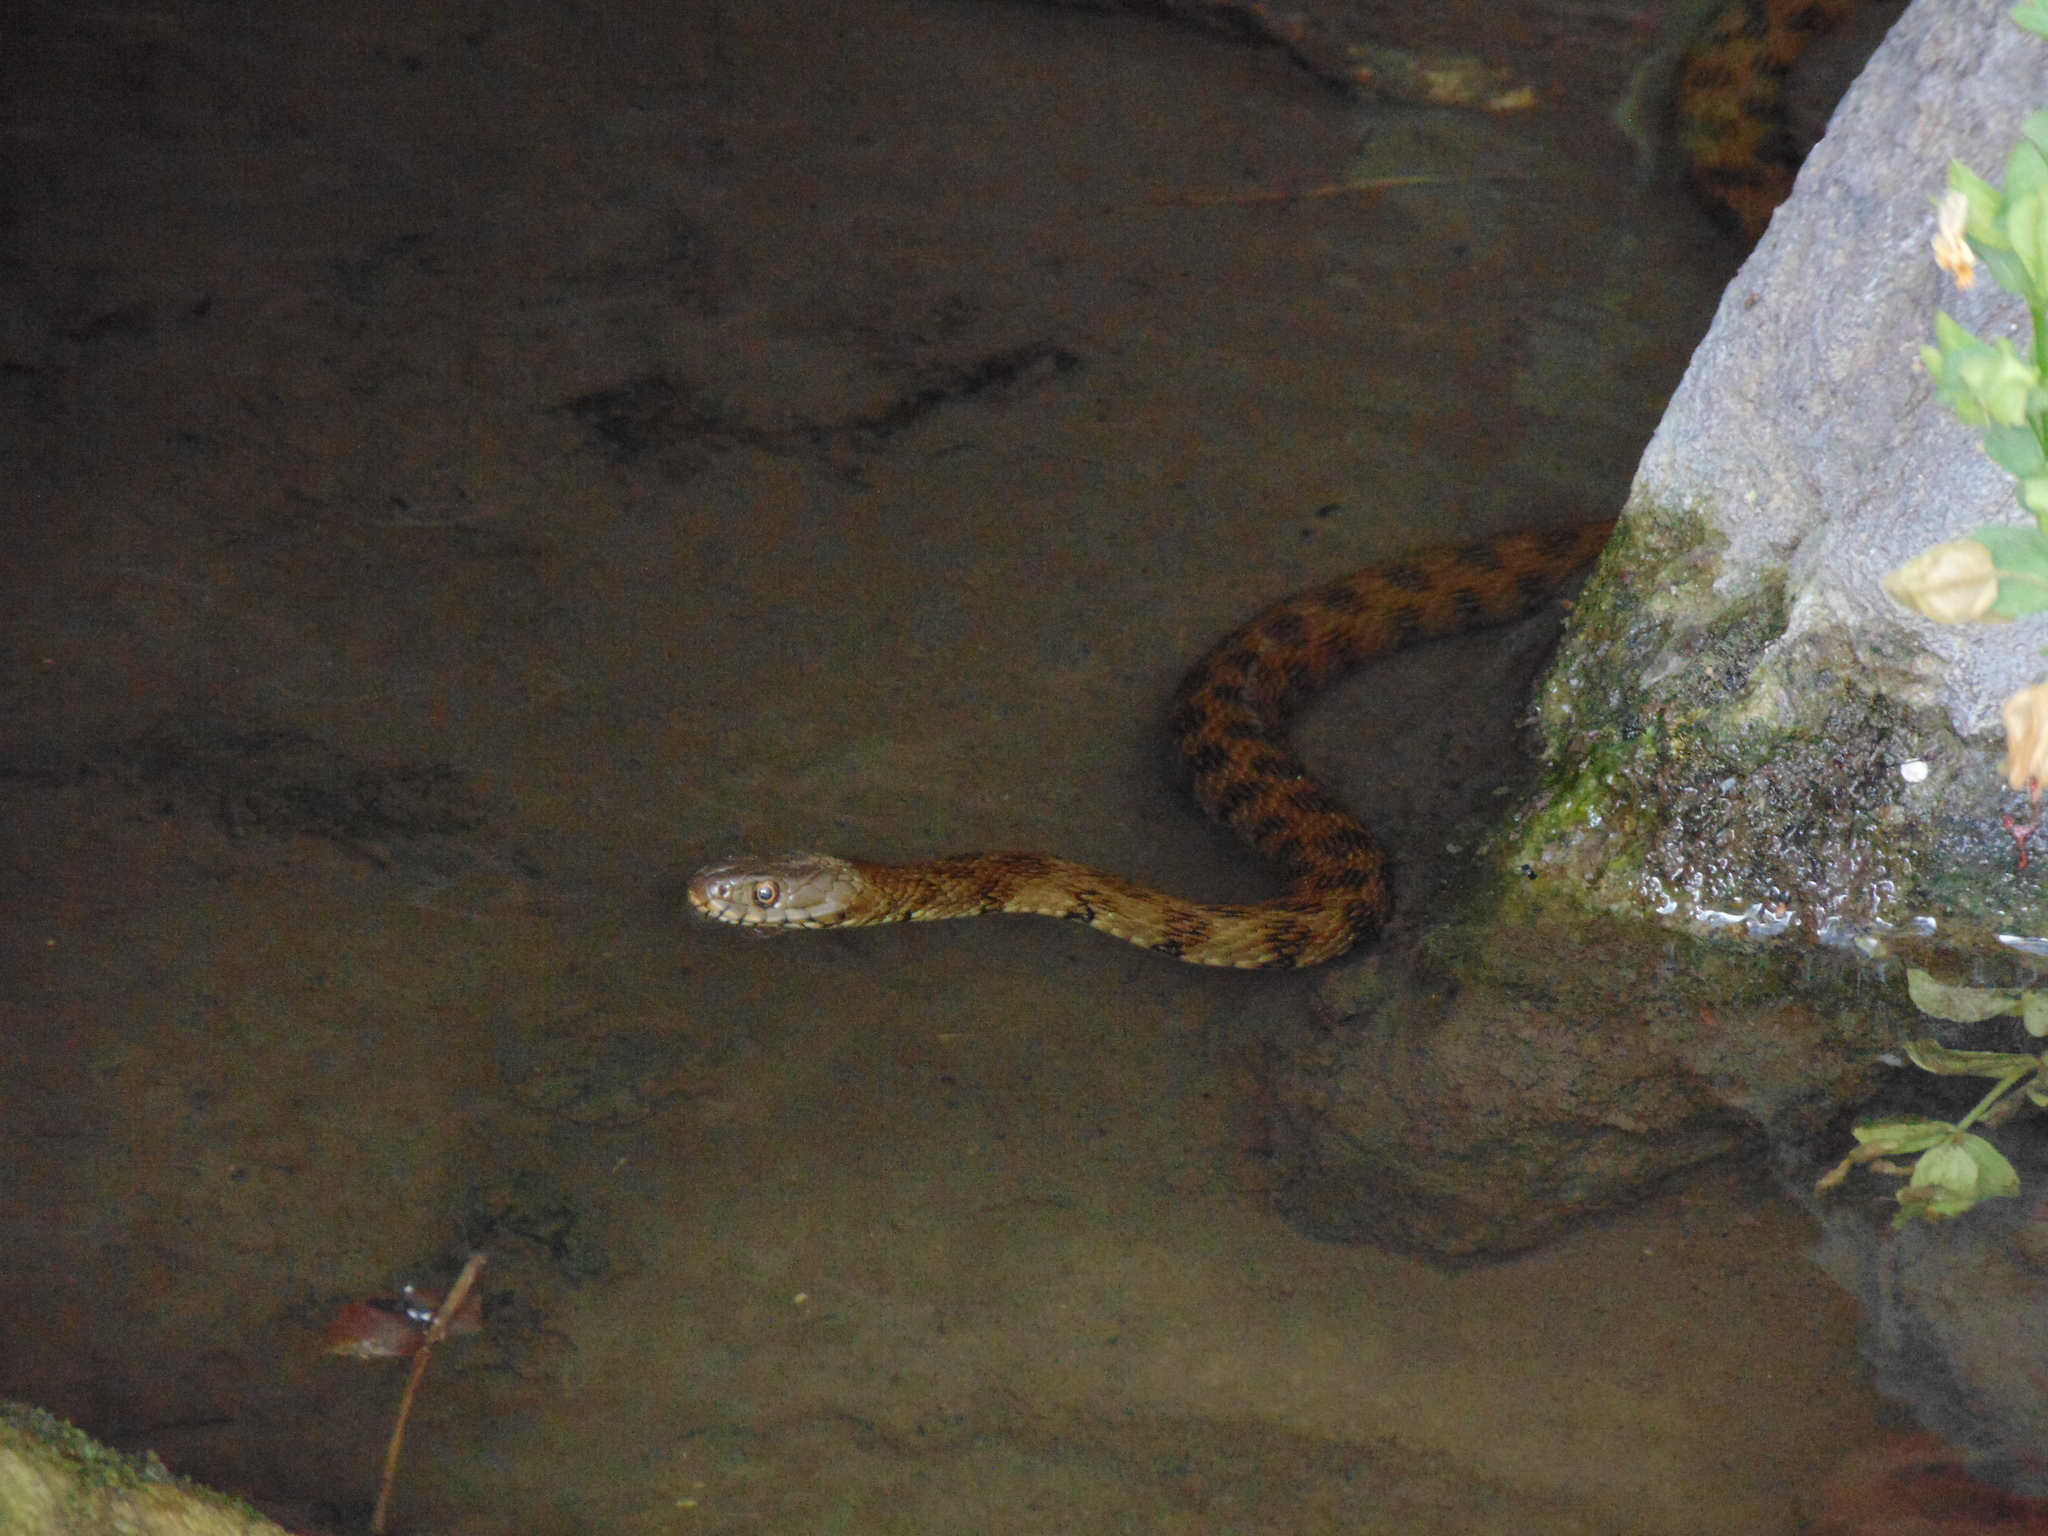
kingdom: Animalia
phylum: Chordata
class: Squamata
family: Colubridae
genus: Natrix
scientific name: Natrix maura
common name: Viperine water snake
